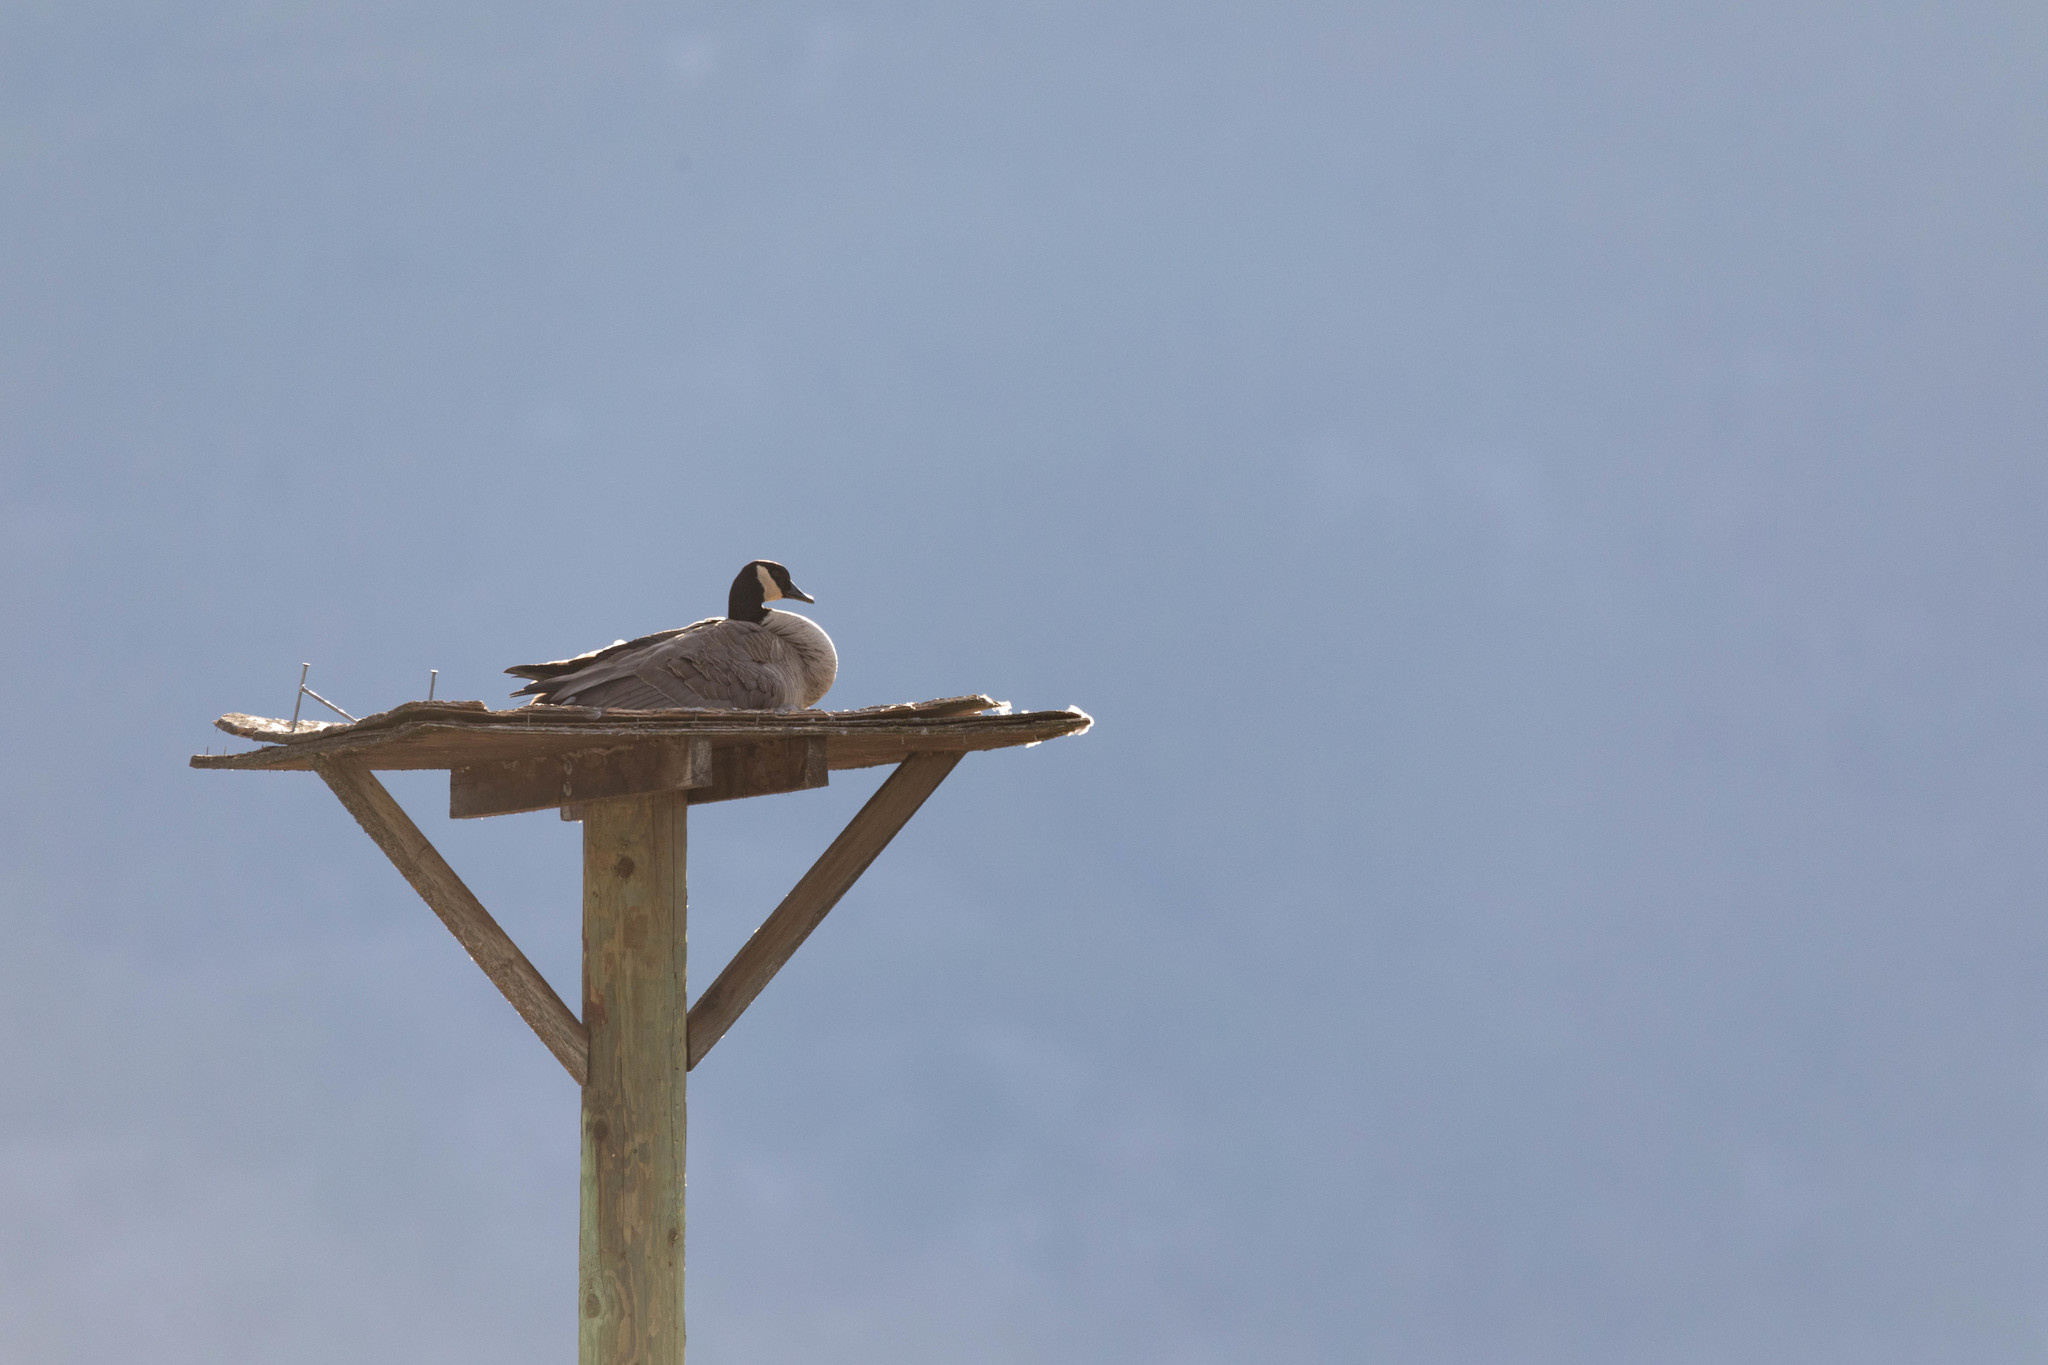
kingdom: Animalia
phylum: Chordata
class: Aves
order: Anseriformes
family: Anatidae
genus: Branta
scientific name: Branta canadensis
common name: Canada goose
